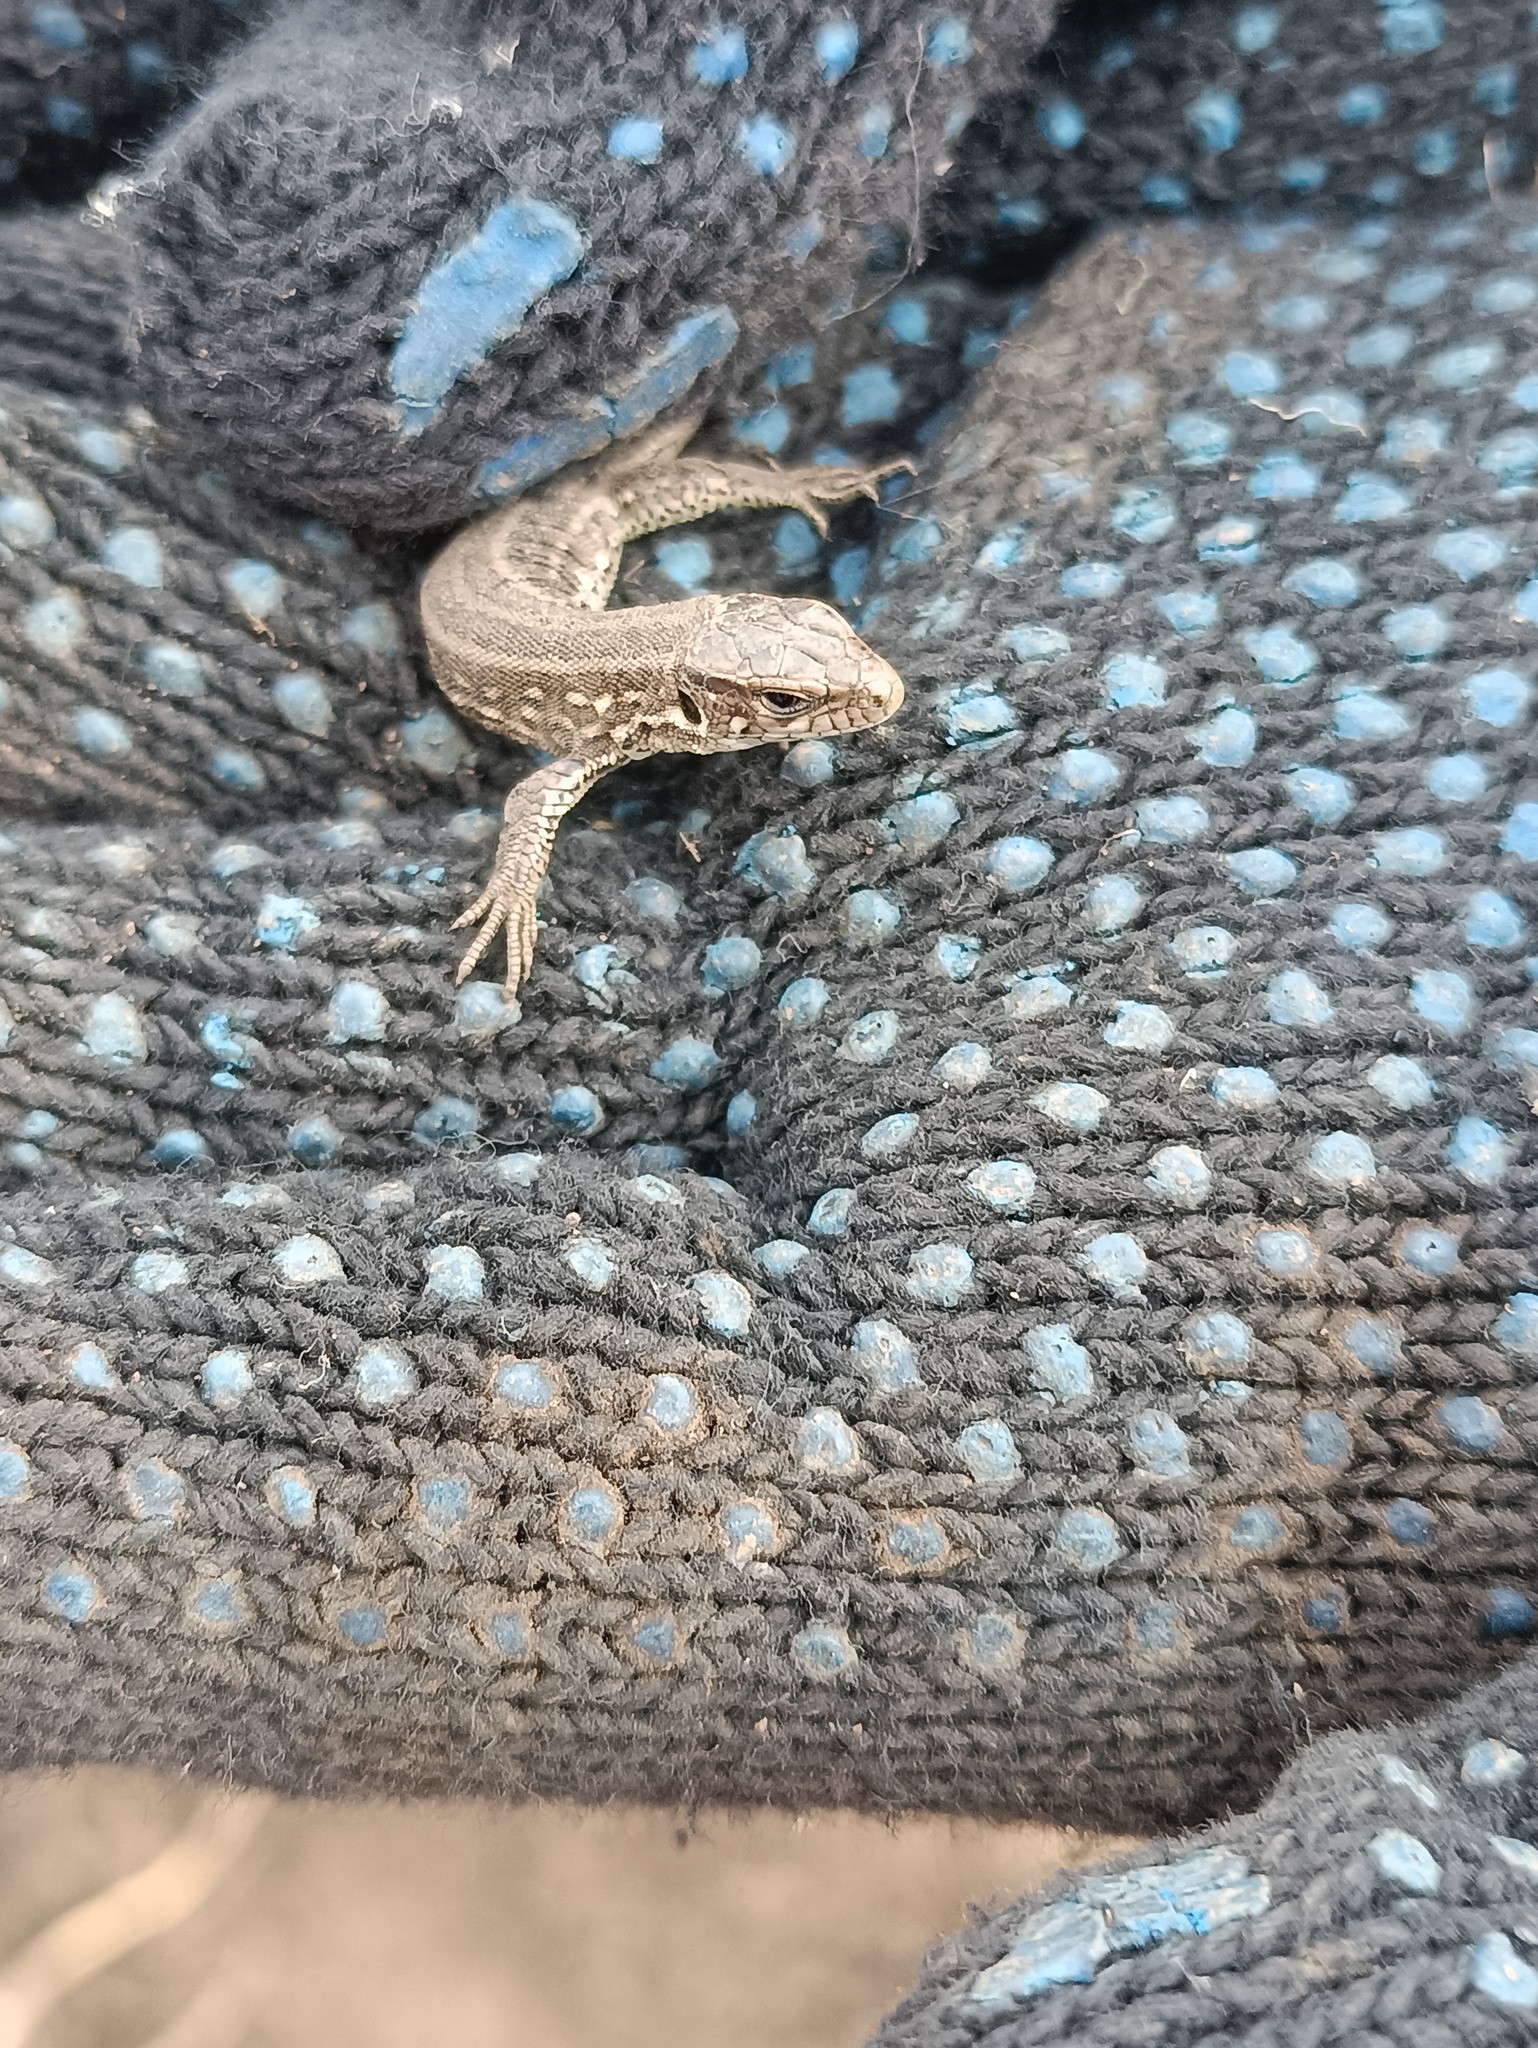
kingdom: Animalia
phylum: Chordata
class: Squamata
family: Lacertidae
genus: Lacerta
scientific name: Lacerta agilis
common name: Sand lizard
